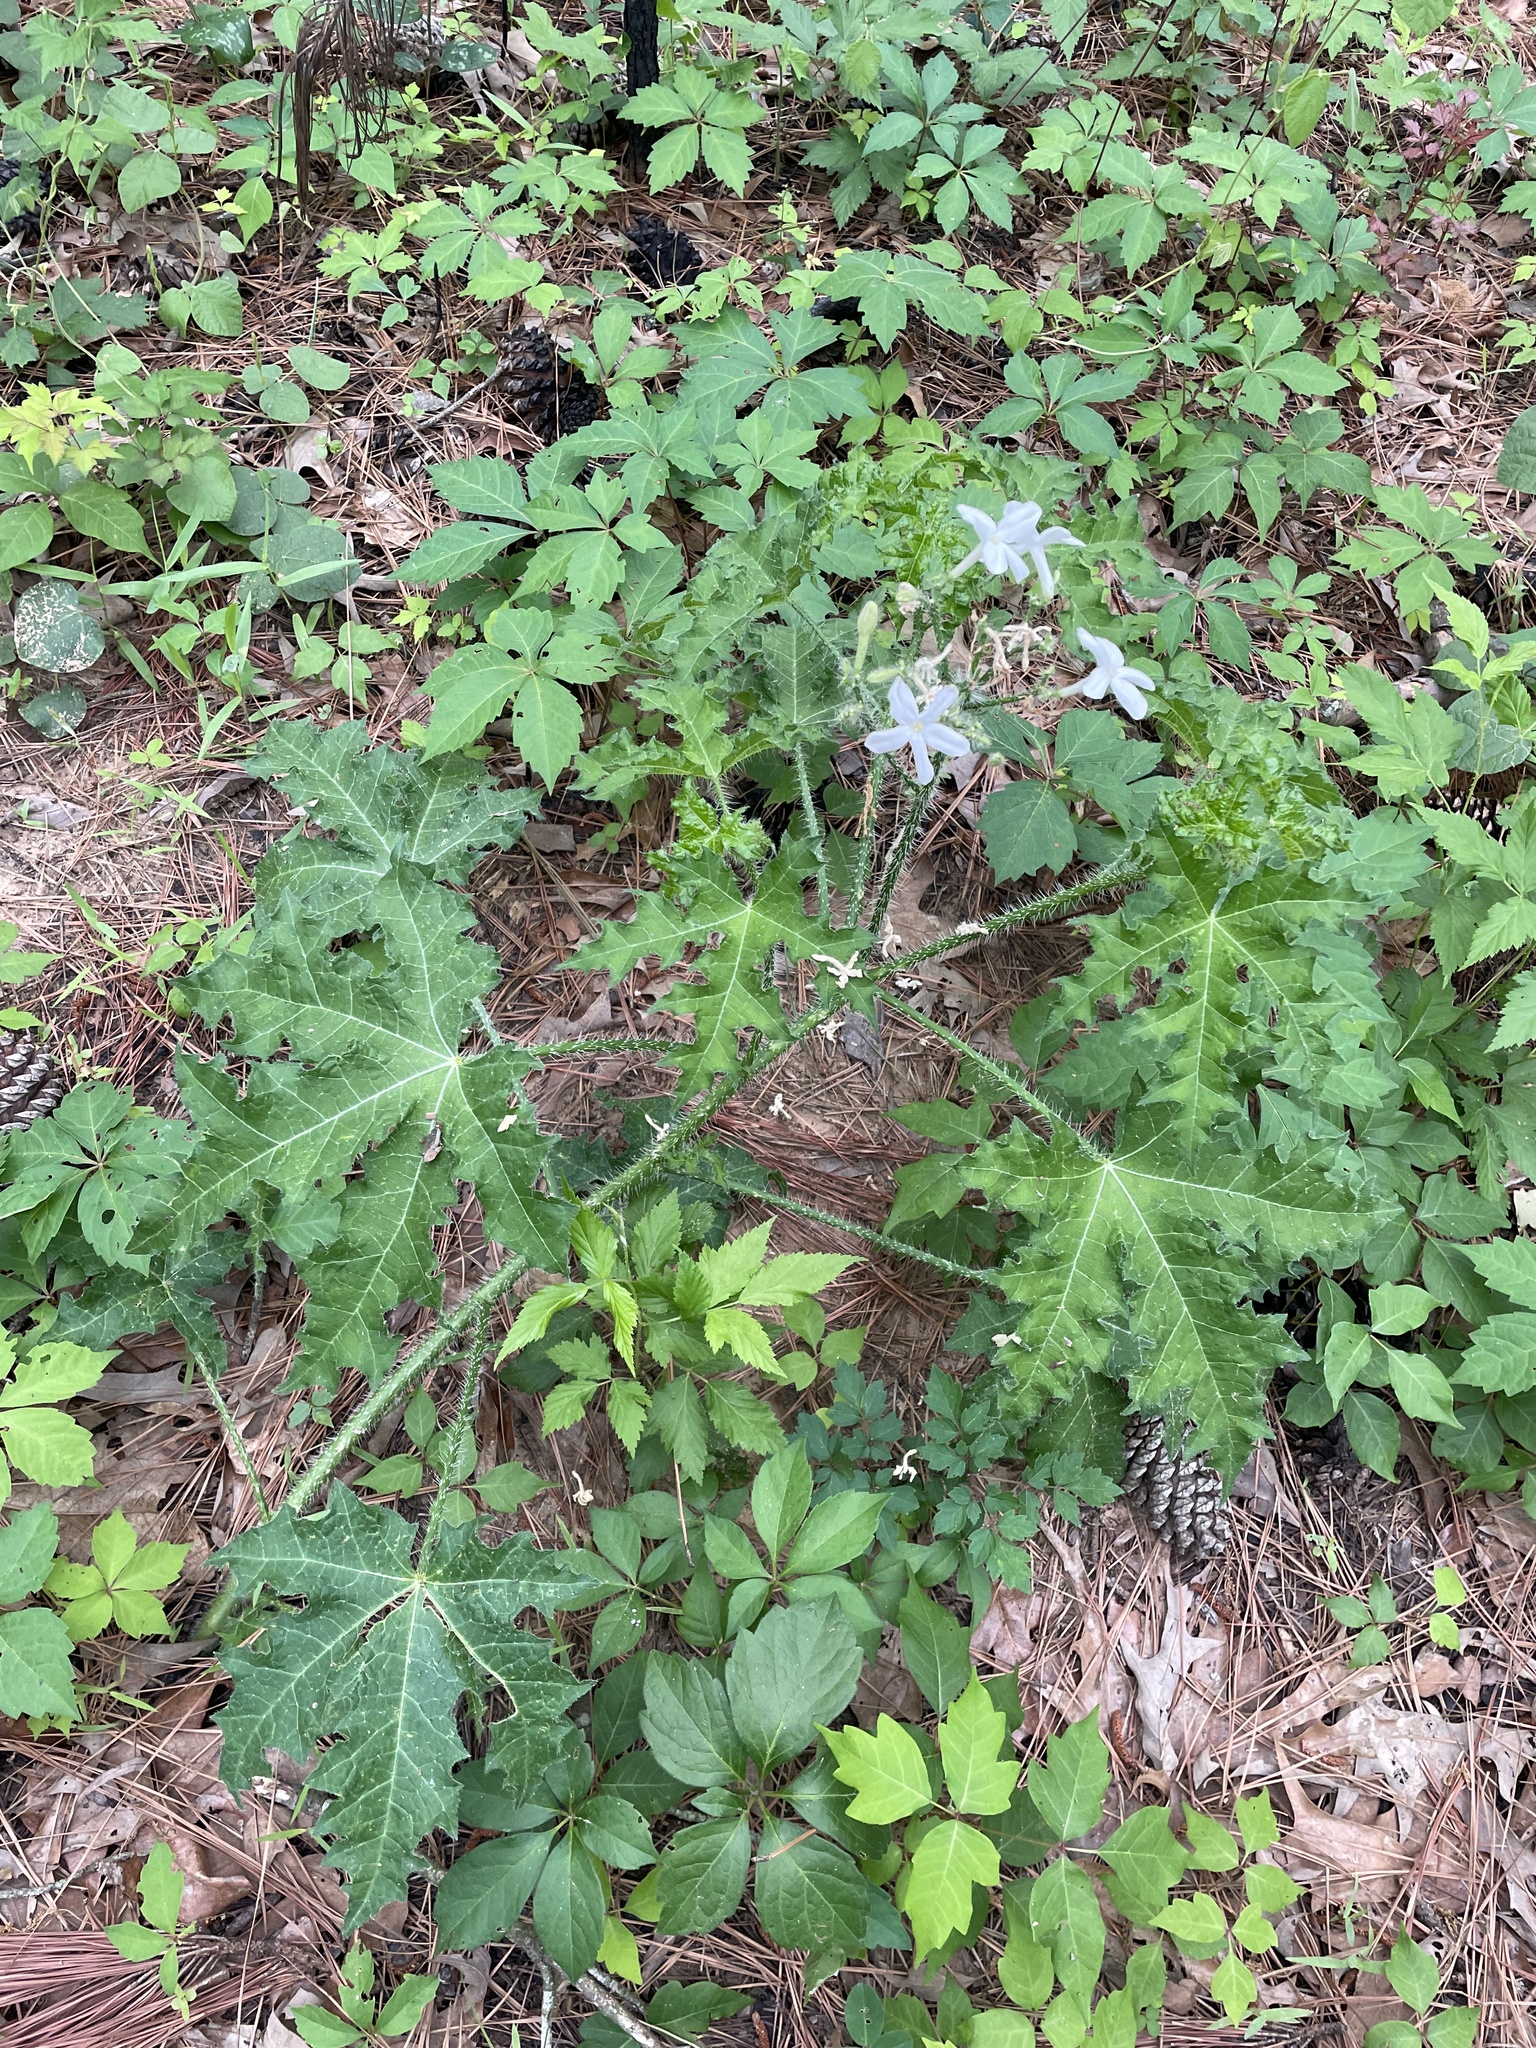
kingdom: Plantae
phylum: Tracheophyta
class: Magnoliopsida
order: Malpighiales
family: Euphorbiaceae
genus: Cnidoscolus
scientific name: Cnidoscolus texanus
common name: Texas bull-nettle
